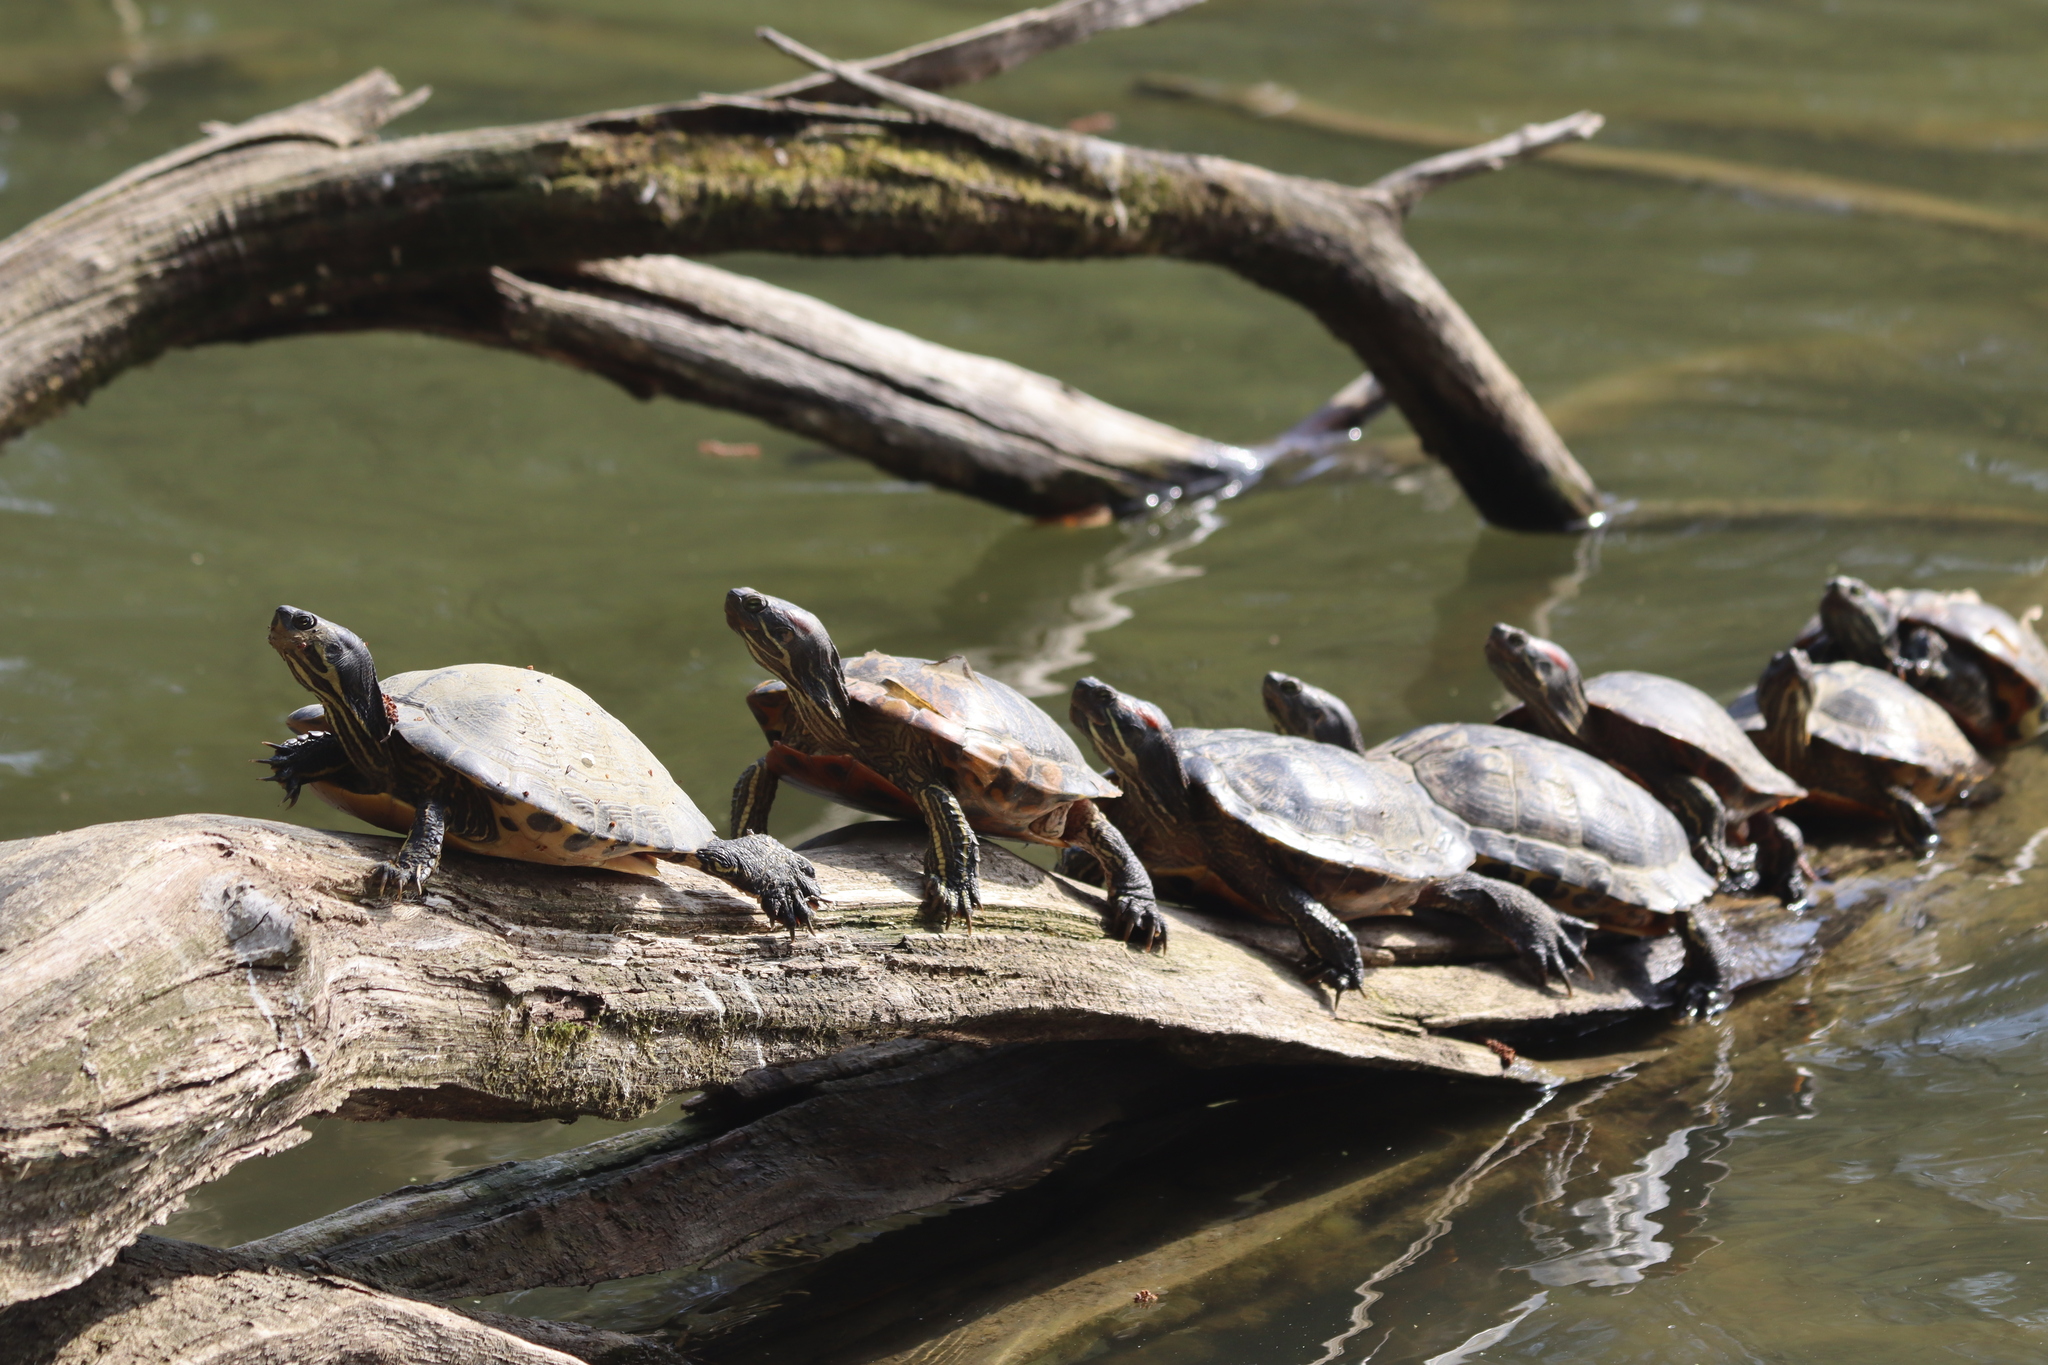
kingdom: Animalia
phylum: Chordata
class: Testudines
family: Emydidae
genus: Trachemys
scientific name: Trachemys scripta
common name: Slider
